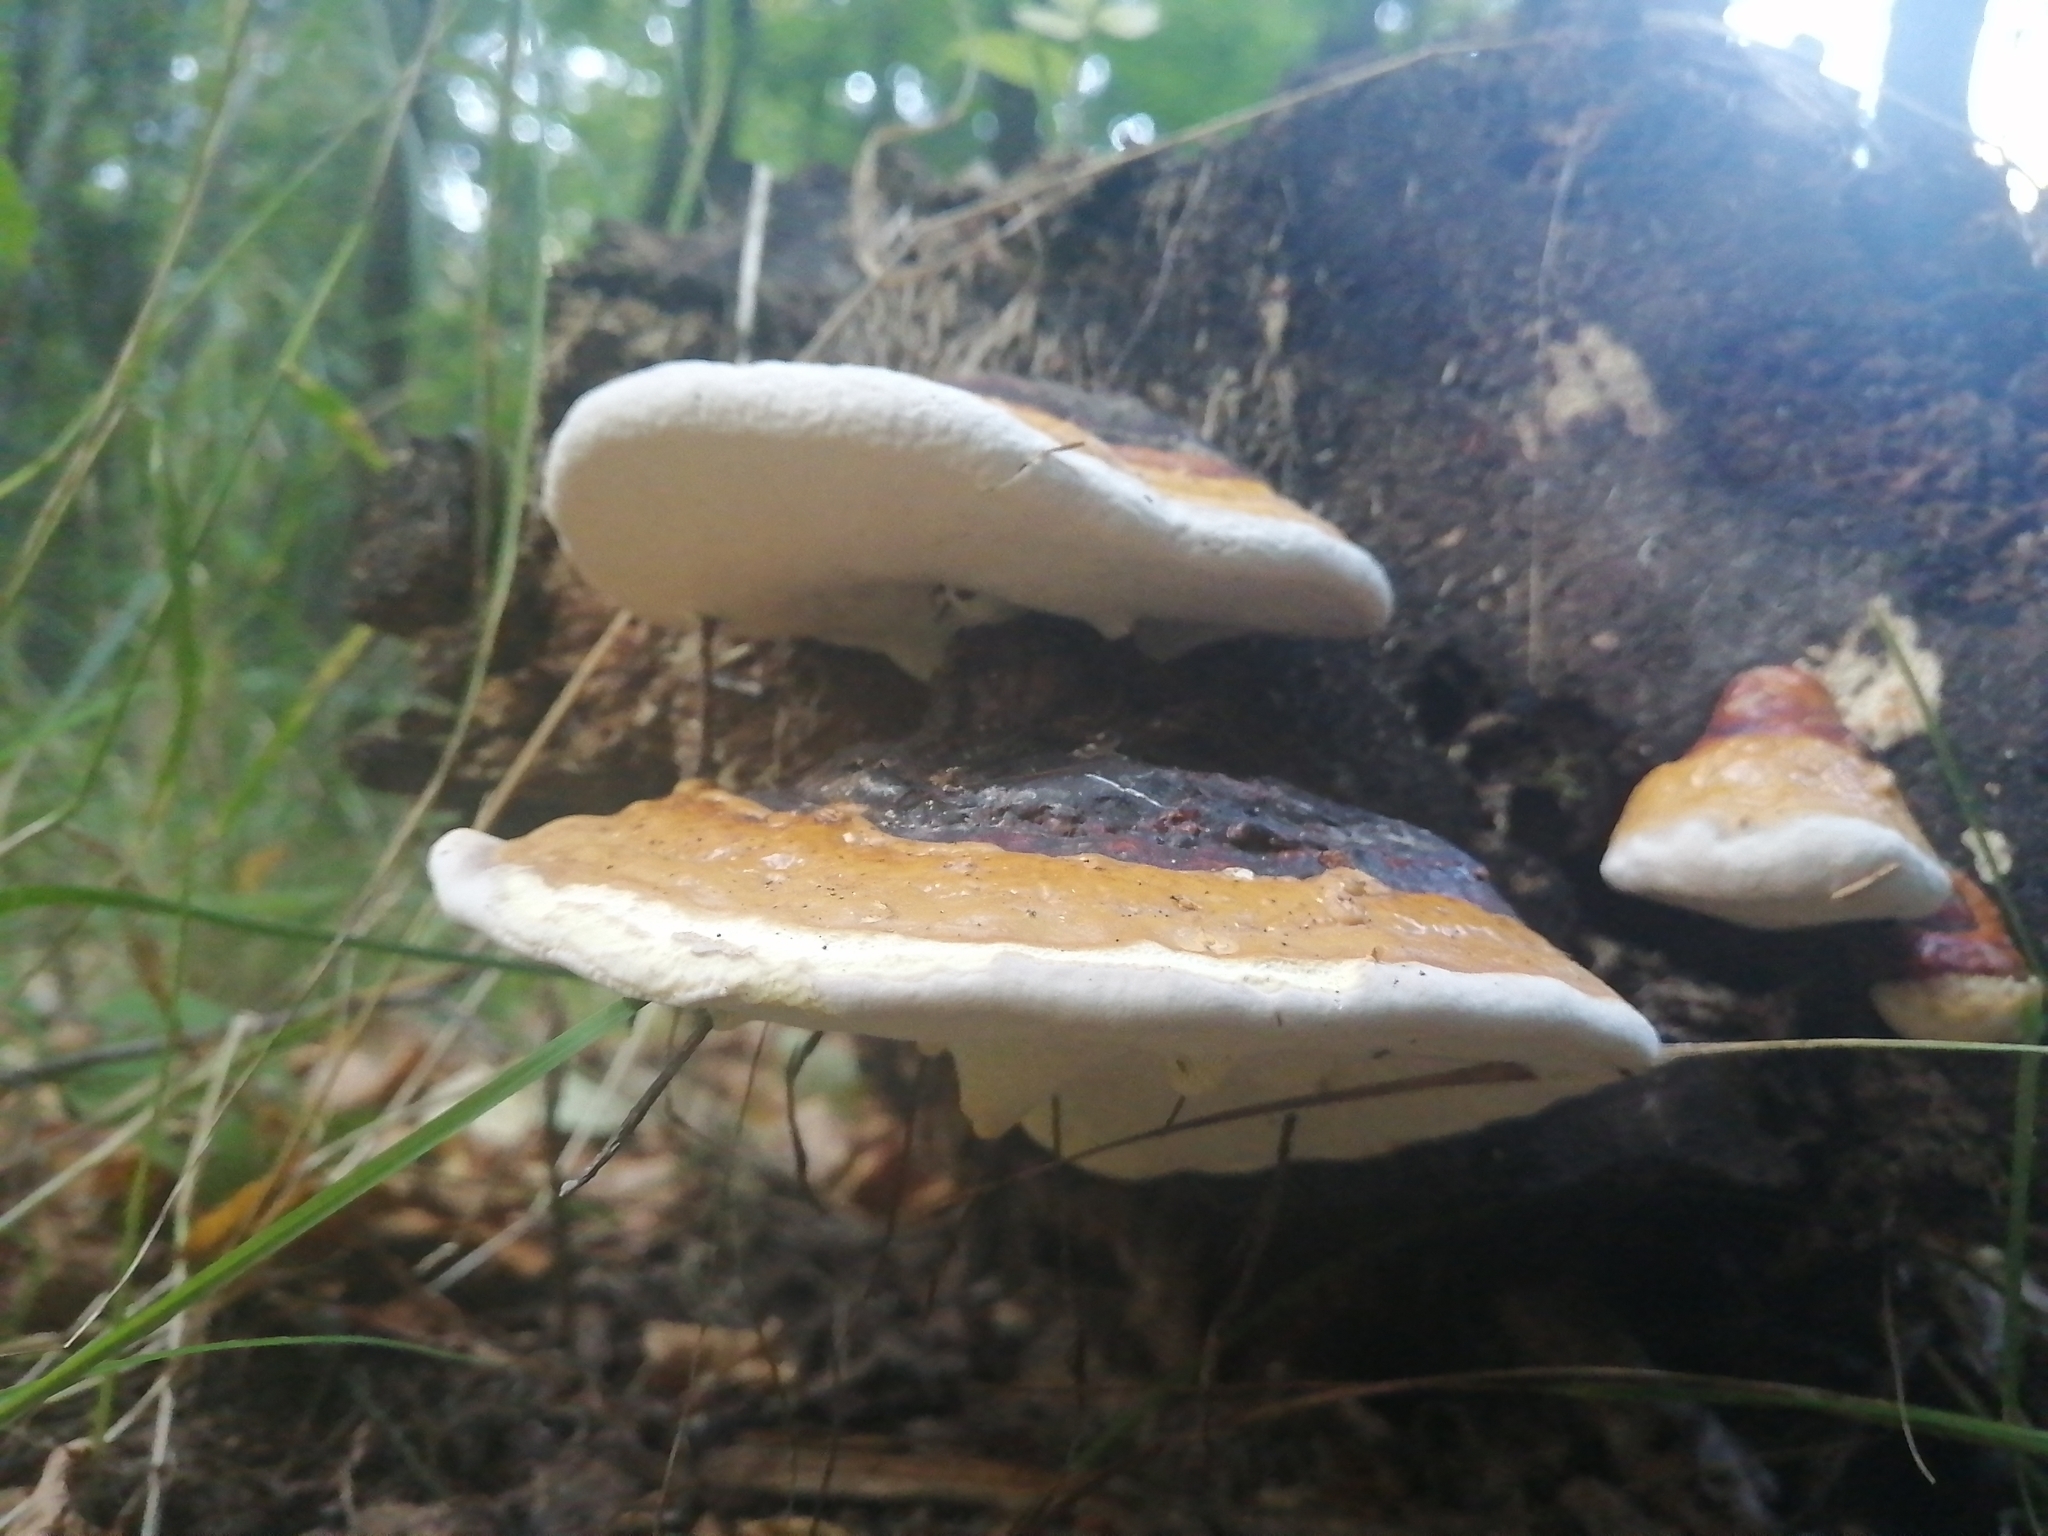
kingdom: Fungi
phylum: Basidiomycota
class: Agaricomycetes
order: Polyporales
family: Fomitopsidaceae
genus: Fomitopsis
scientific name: Fomitopsis pinicola
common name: Red-belted bracket
